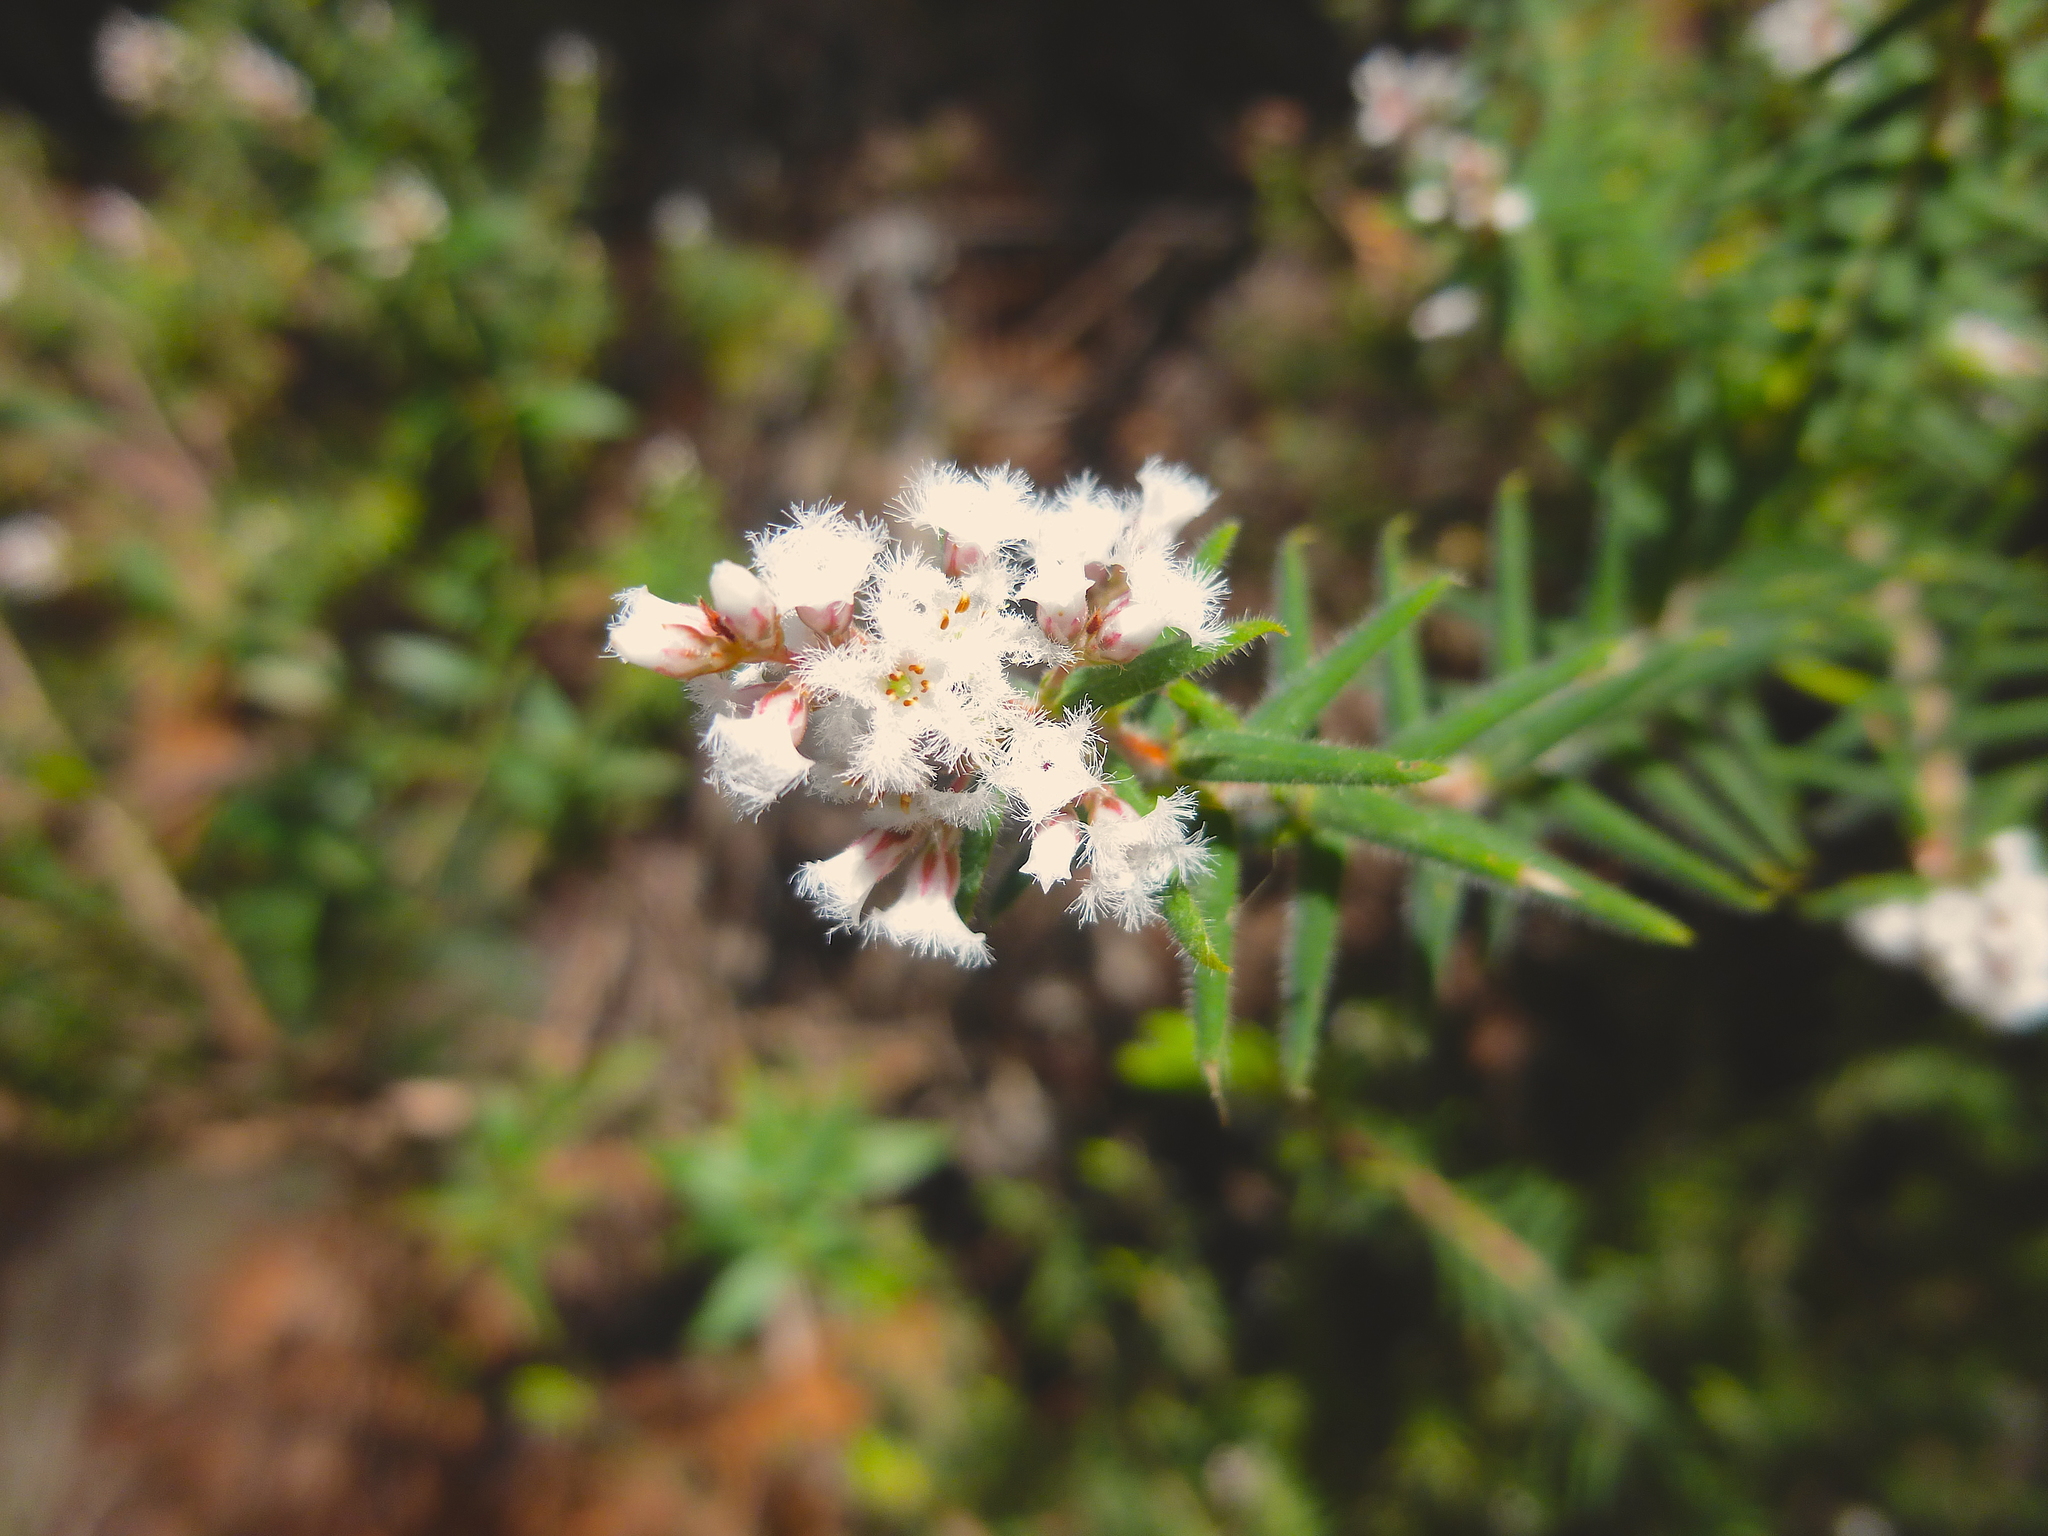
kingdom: Plantae
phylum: Tracheophyta
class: Magnoliopsida
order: Ericales
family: Ericaceae
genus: Leucopogon
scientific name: Leucopogon thymifolius
